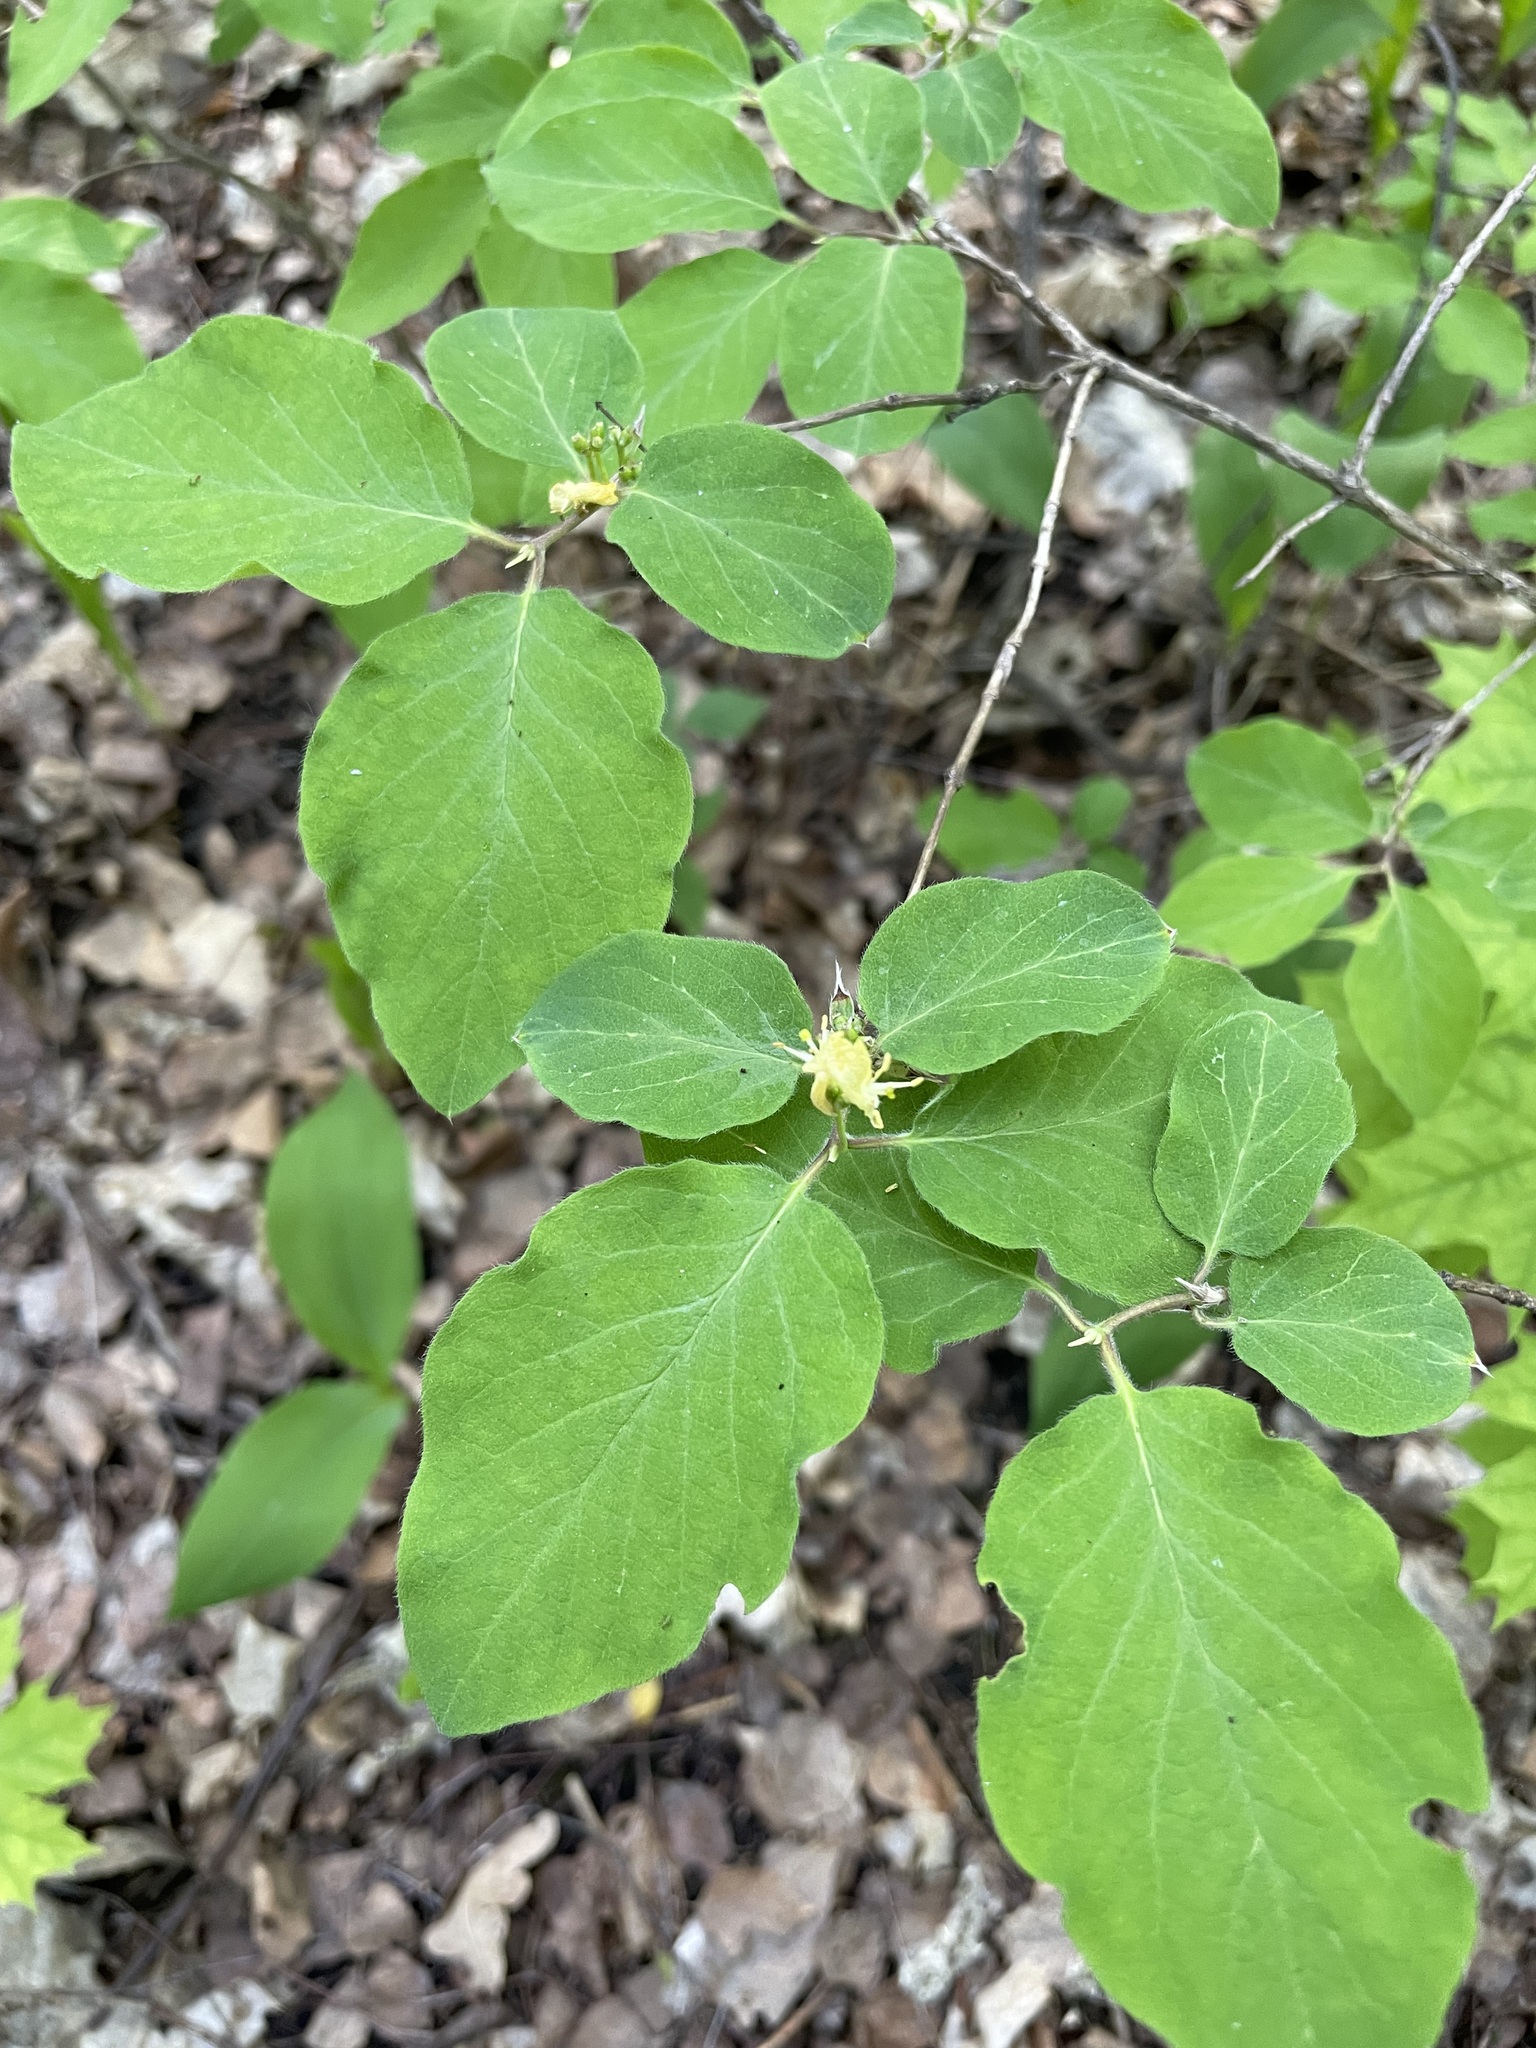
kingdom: Plantae
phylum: Tracheophyta
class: Magnoliopsida
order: Dipsacales
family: Caprifoliaceae
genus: Lonicera
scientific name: Lonicera xylosteum
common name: Fly honeysuckle
